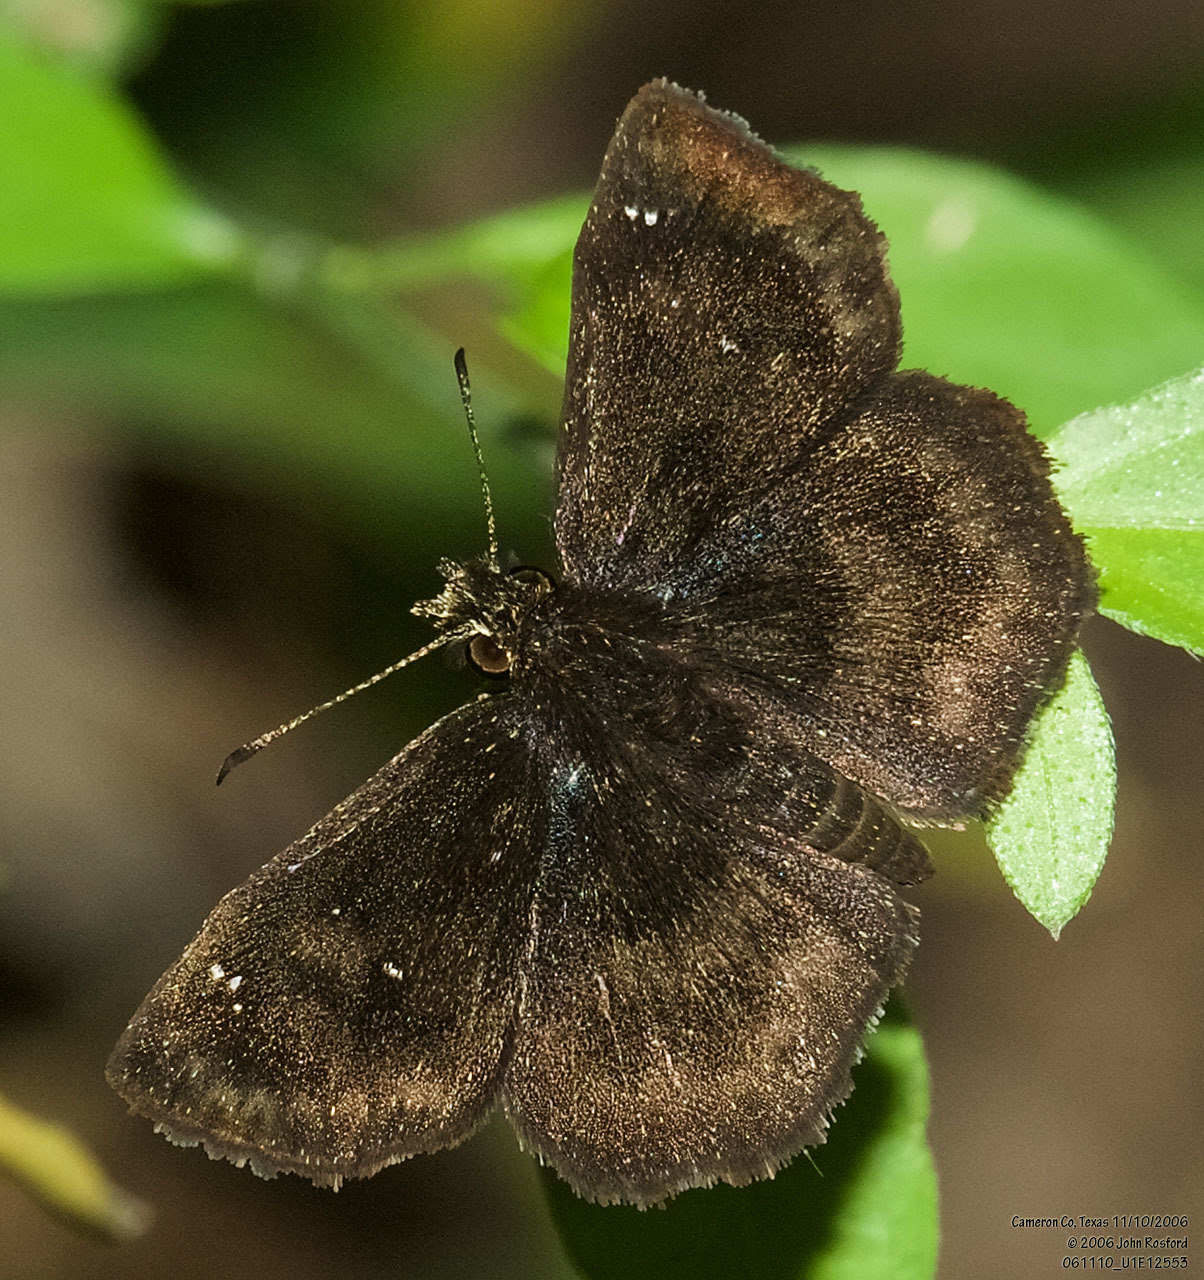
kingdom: Animalia
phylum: Arthropoda
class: Insecta
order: Lepidoptera
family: Hesperiidae
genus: Staphylus
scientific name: Staphylus mazans
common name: Mazans scallopwing
